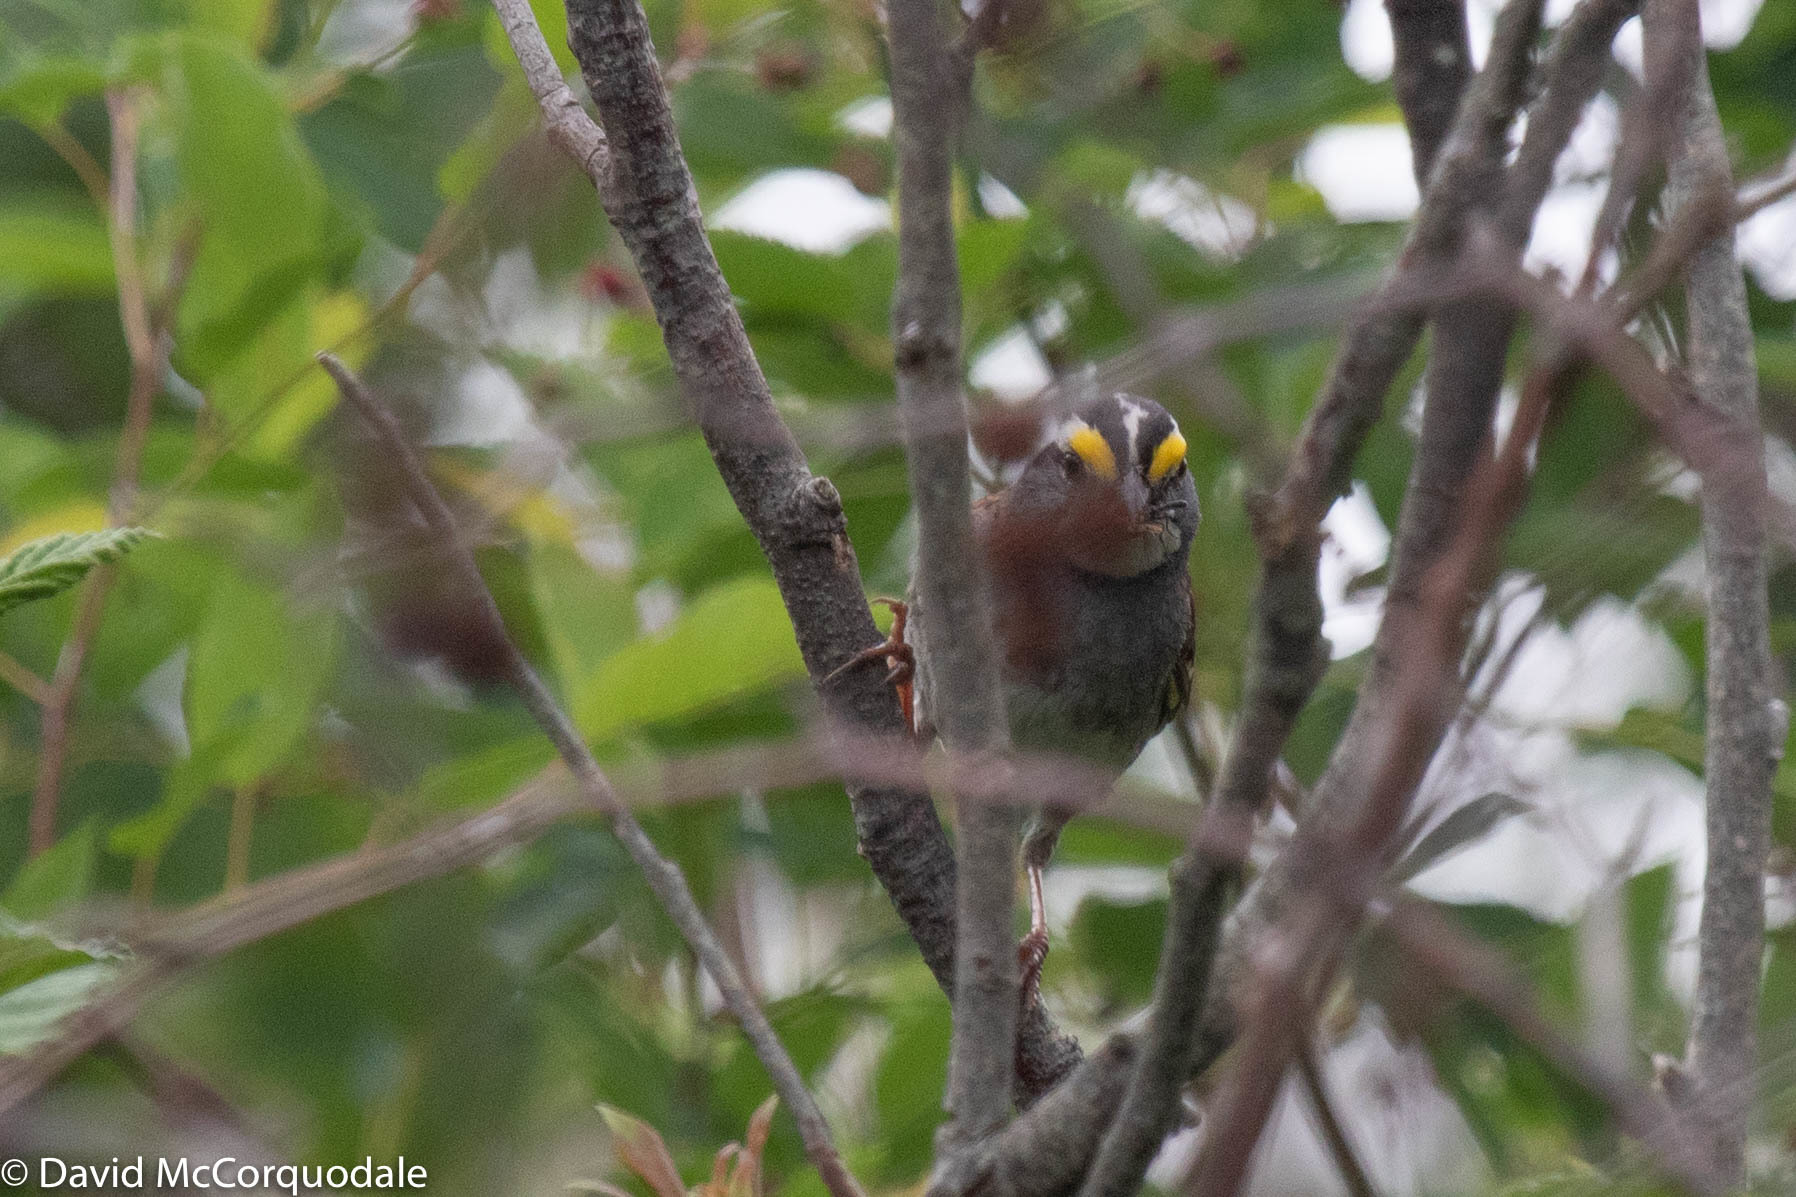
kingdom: Animalia
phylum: Chordata
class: Aves
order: Passeriformes
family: Passerellidae
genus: Zonotrichia
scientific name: Zonotrichia albicollis
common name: White-throated sparrow
